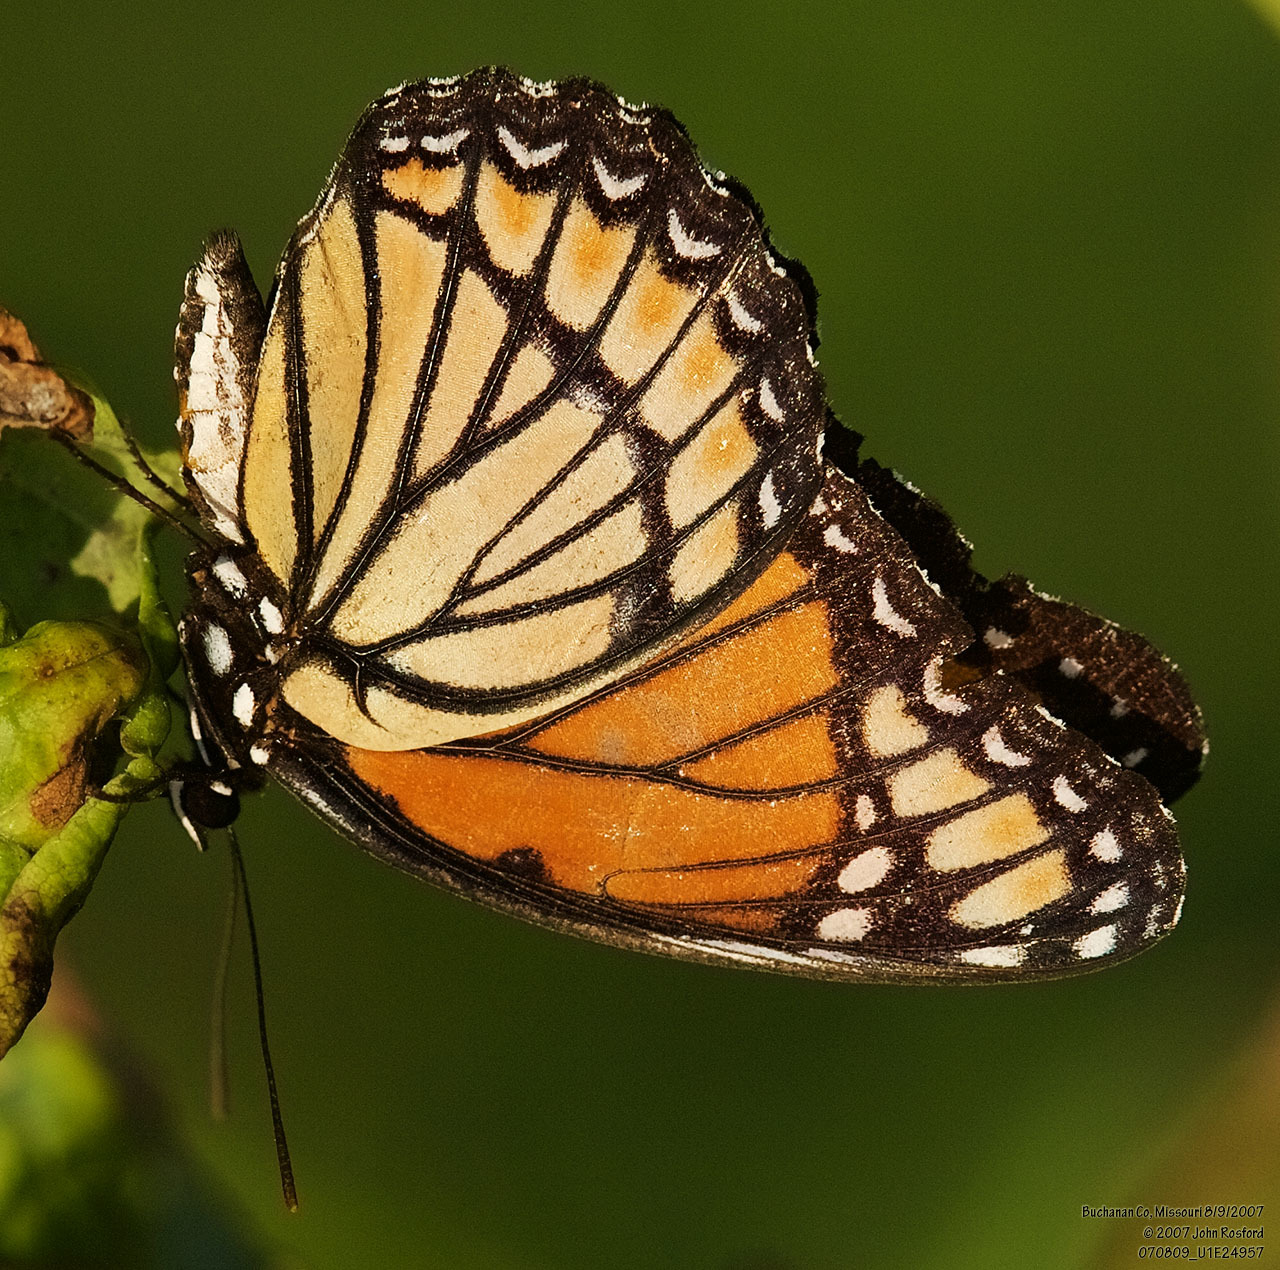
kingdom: Animalia
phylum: Arthropoda
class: Insecta
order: Lepidoptera
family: Nymphalidae
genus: Limenitis
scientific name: Limenitis archippus
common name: Viceroy
